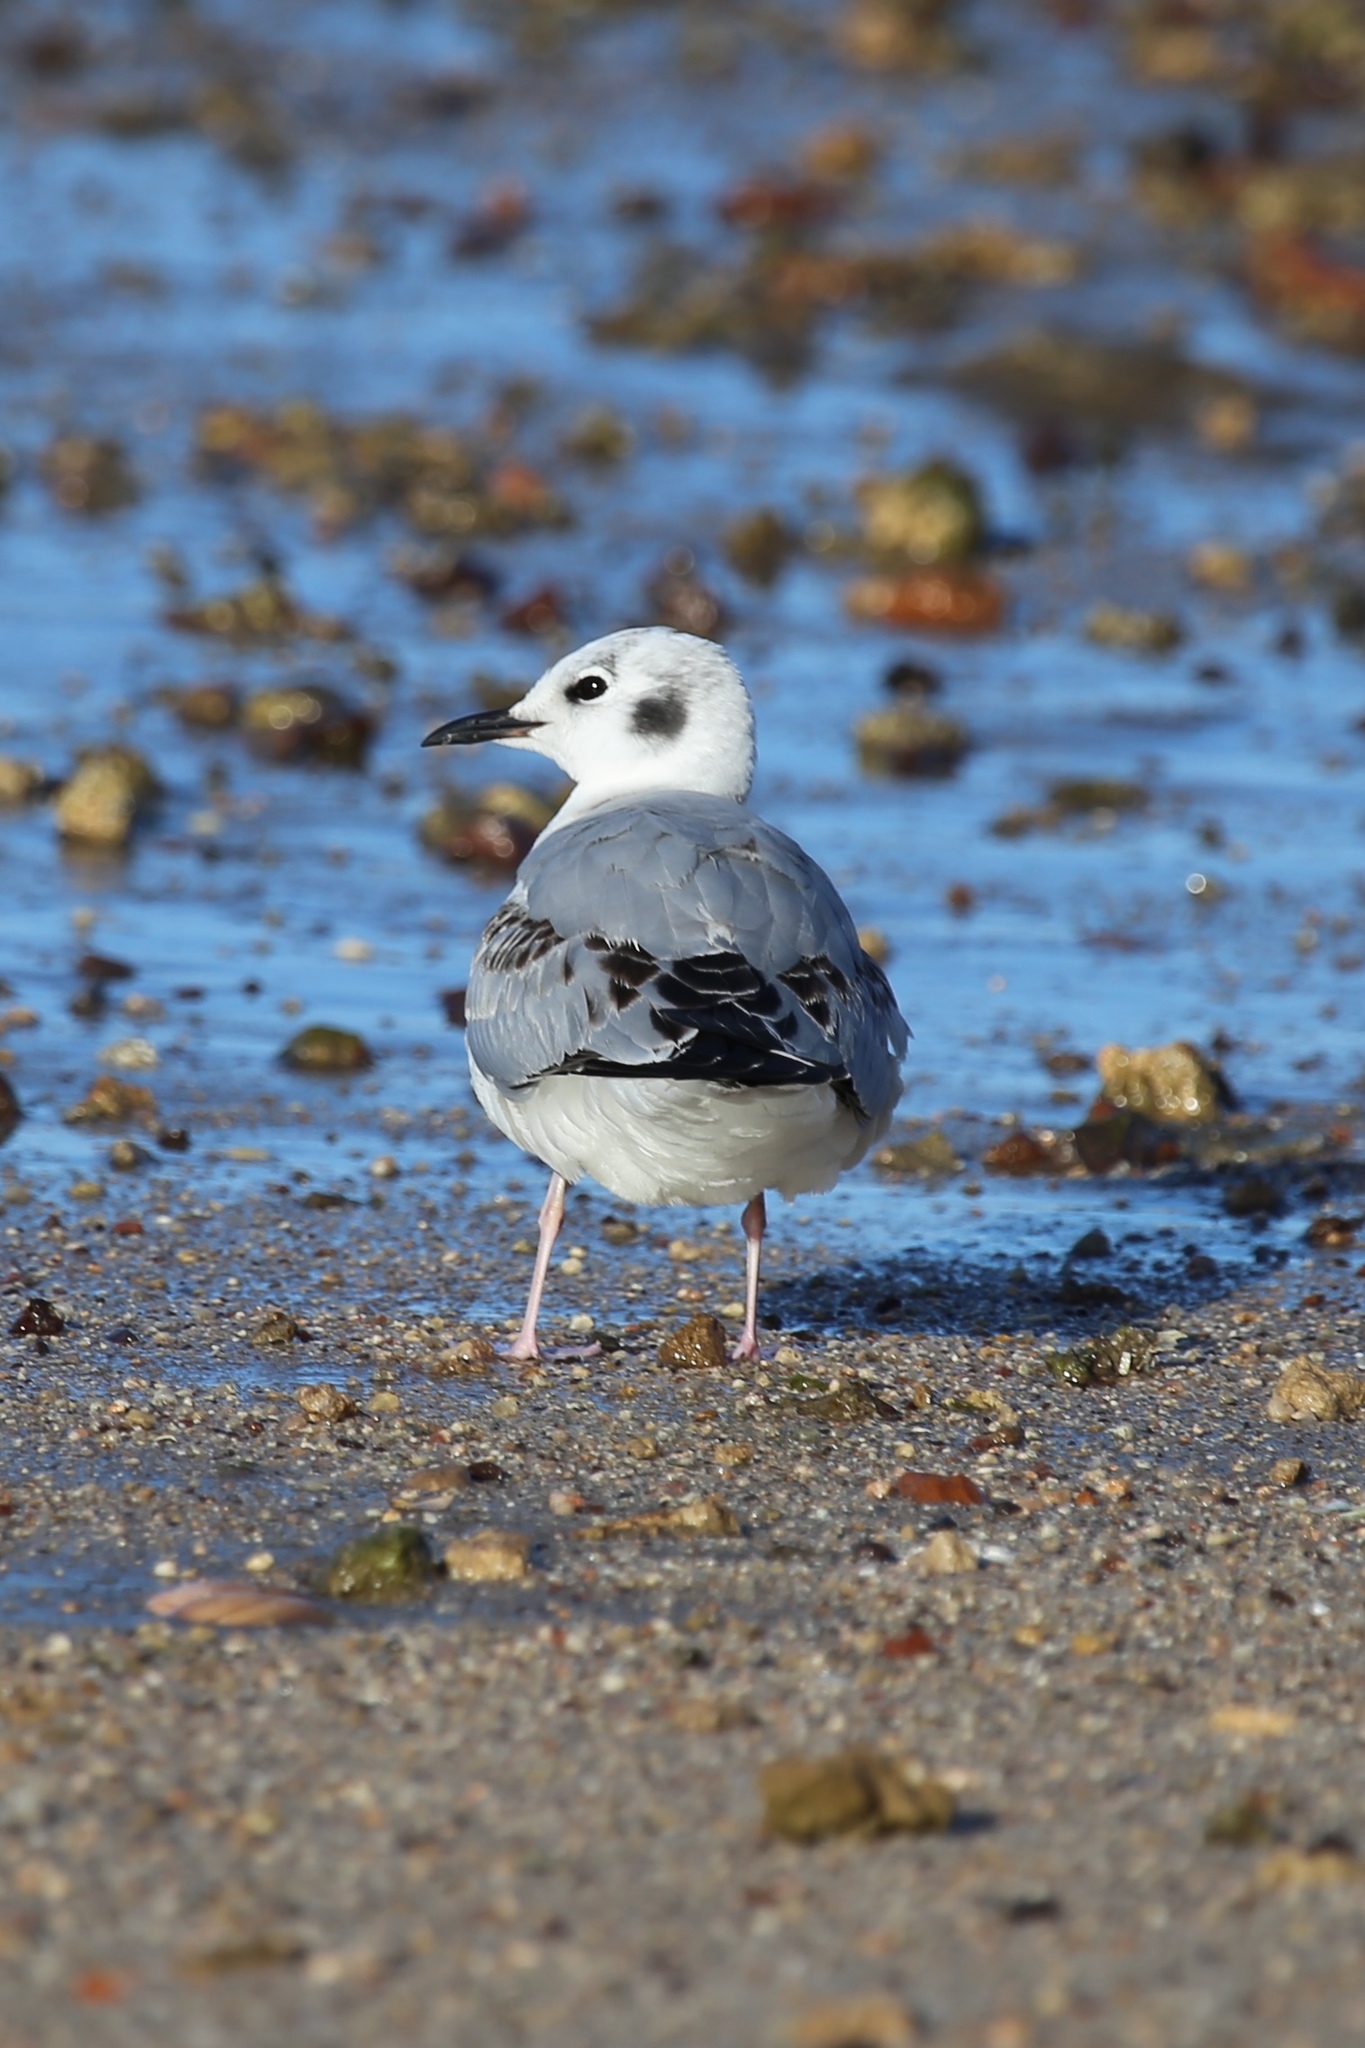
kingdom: Animalia
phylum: Chordata
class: Aves
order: Charadriiformes
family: Laridae
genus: Chroicocephalus
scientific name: Chroicocephalus philadelphia
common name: Bonaparte's gull
